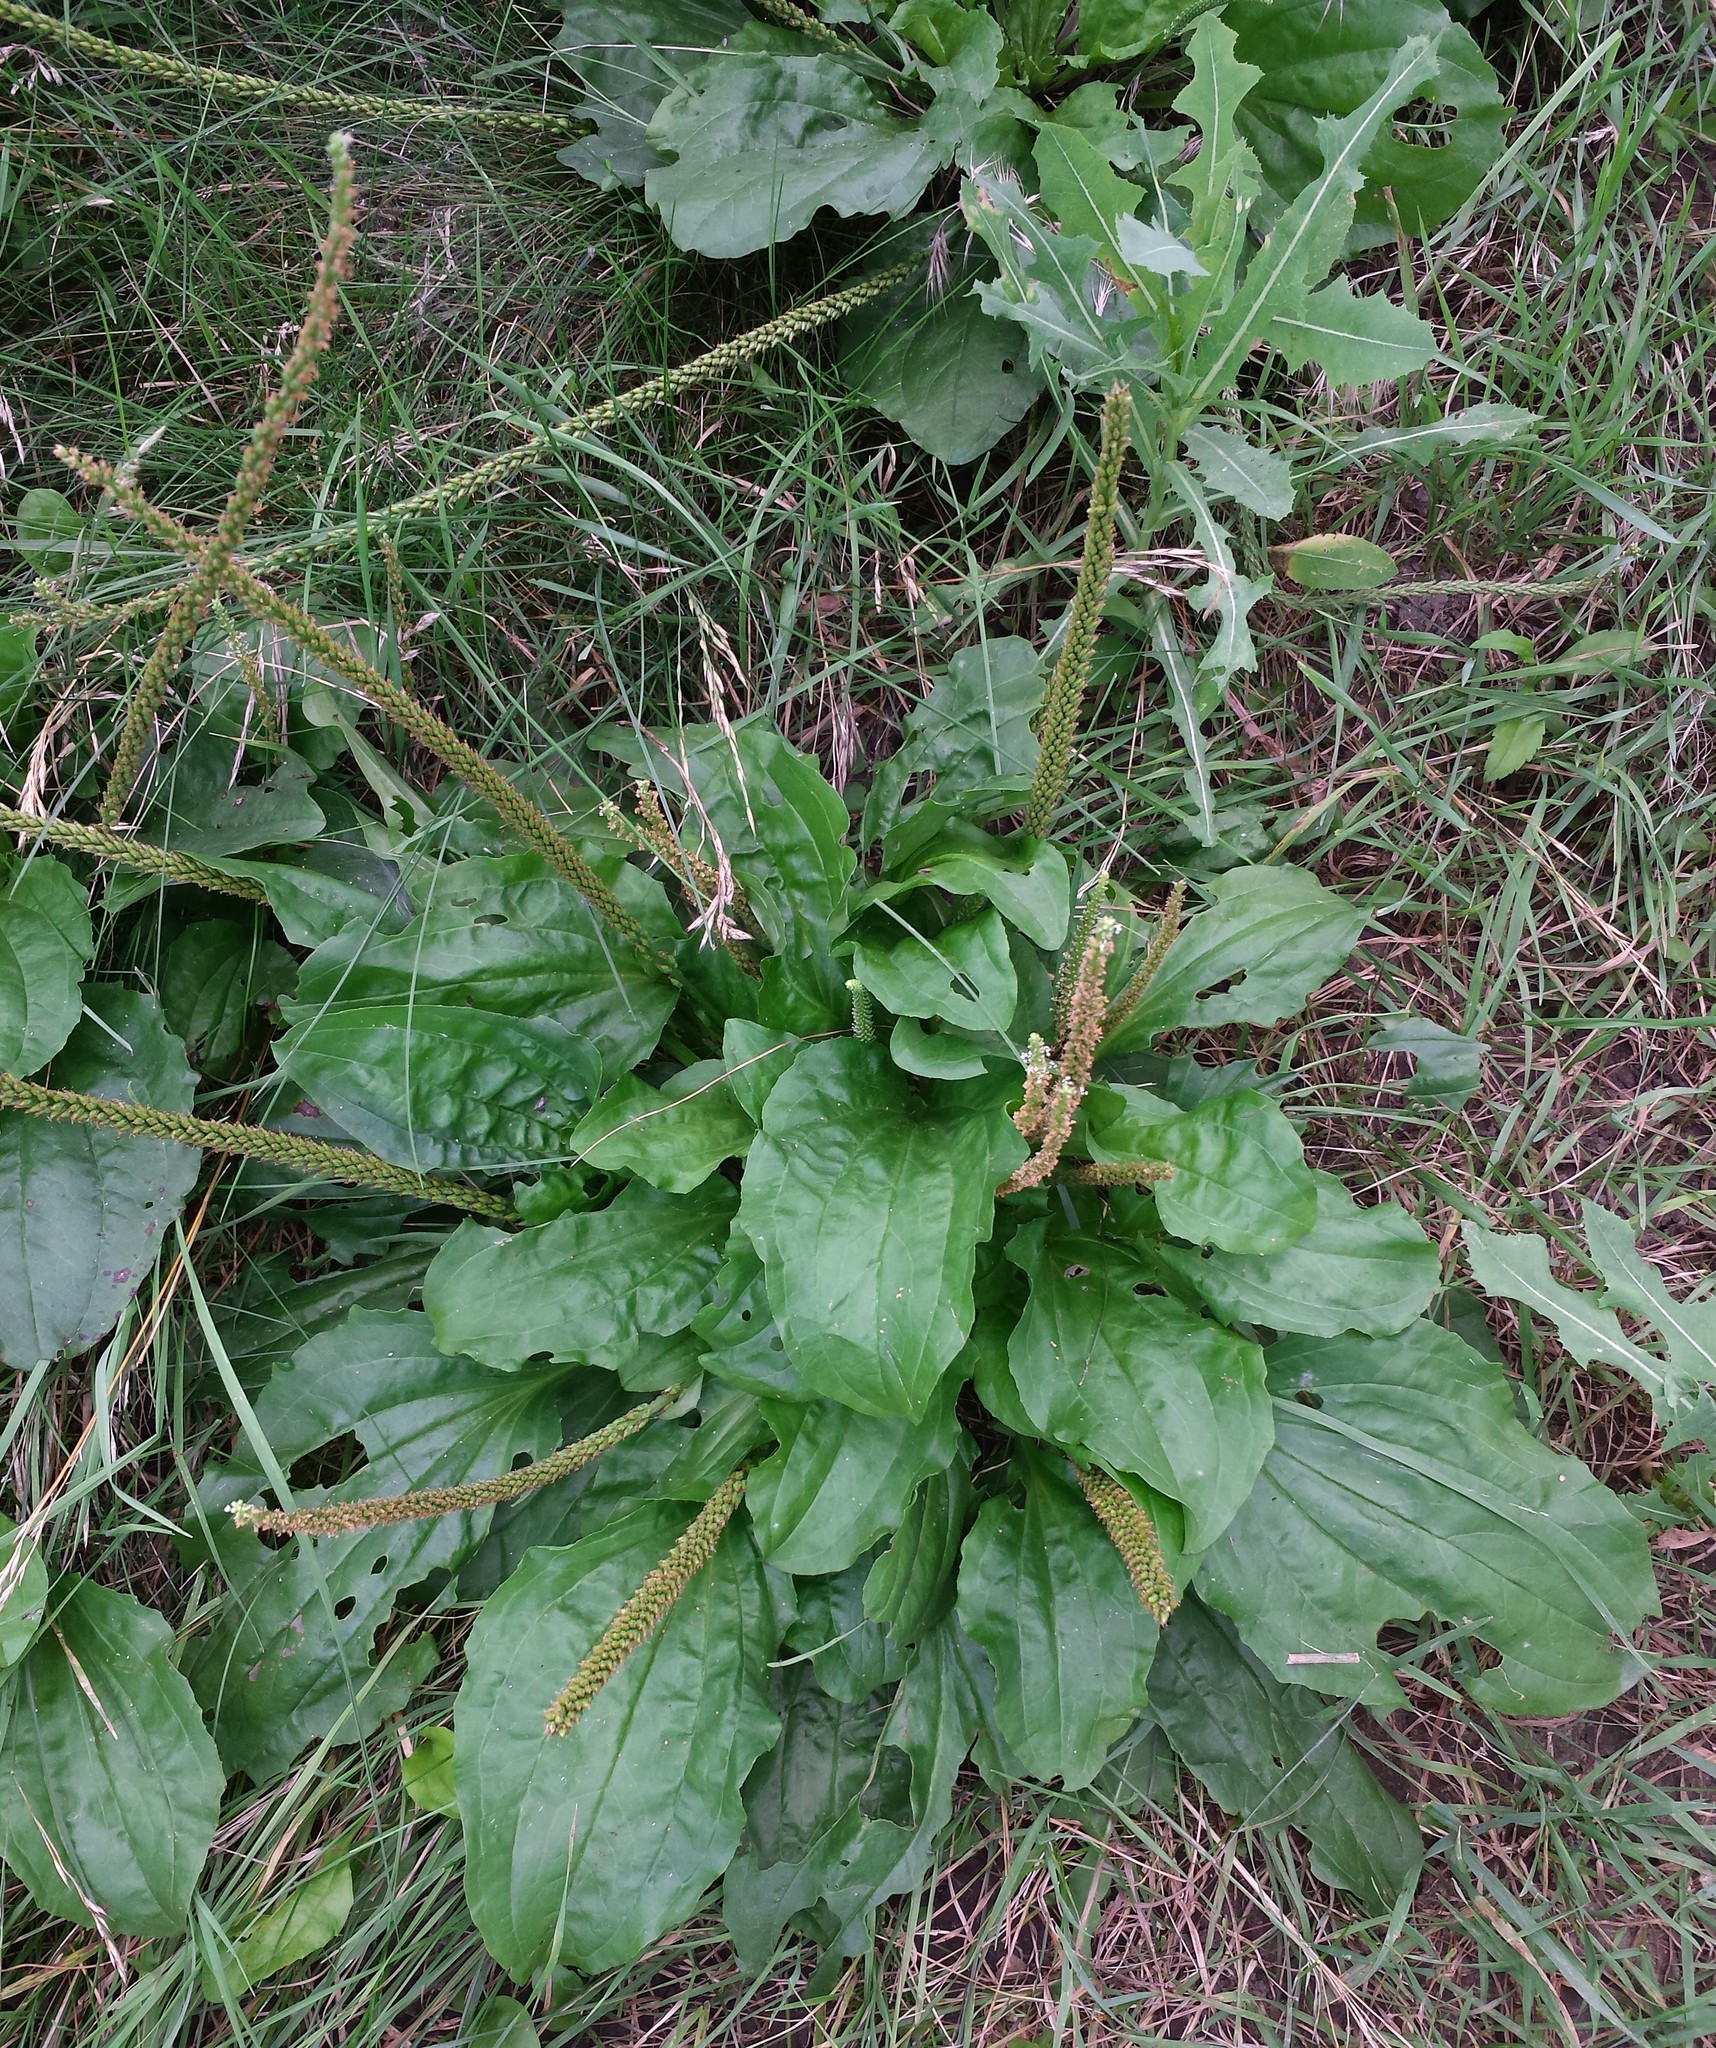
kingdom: Plantae
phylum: Tracheophyta
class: Magnoliopsida
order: Lamiales
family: Plantaginaceae
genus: Plantago
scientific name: Plantago rugelii
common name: American plantain
